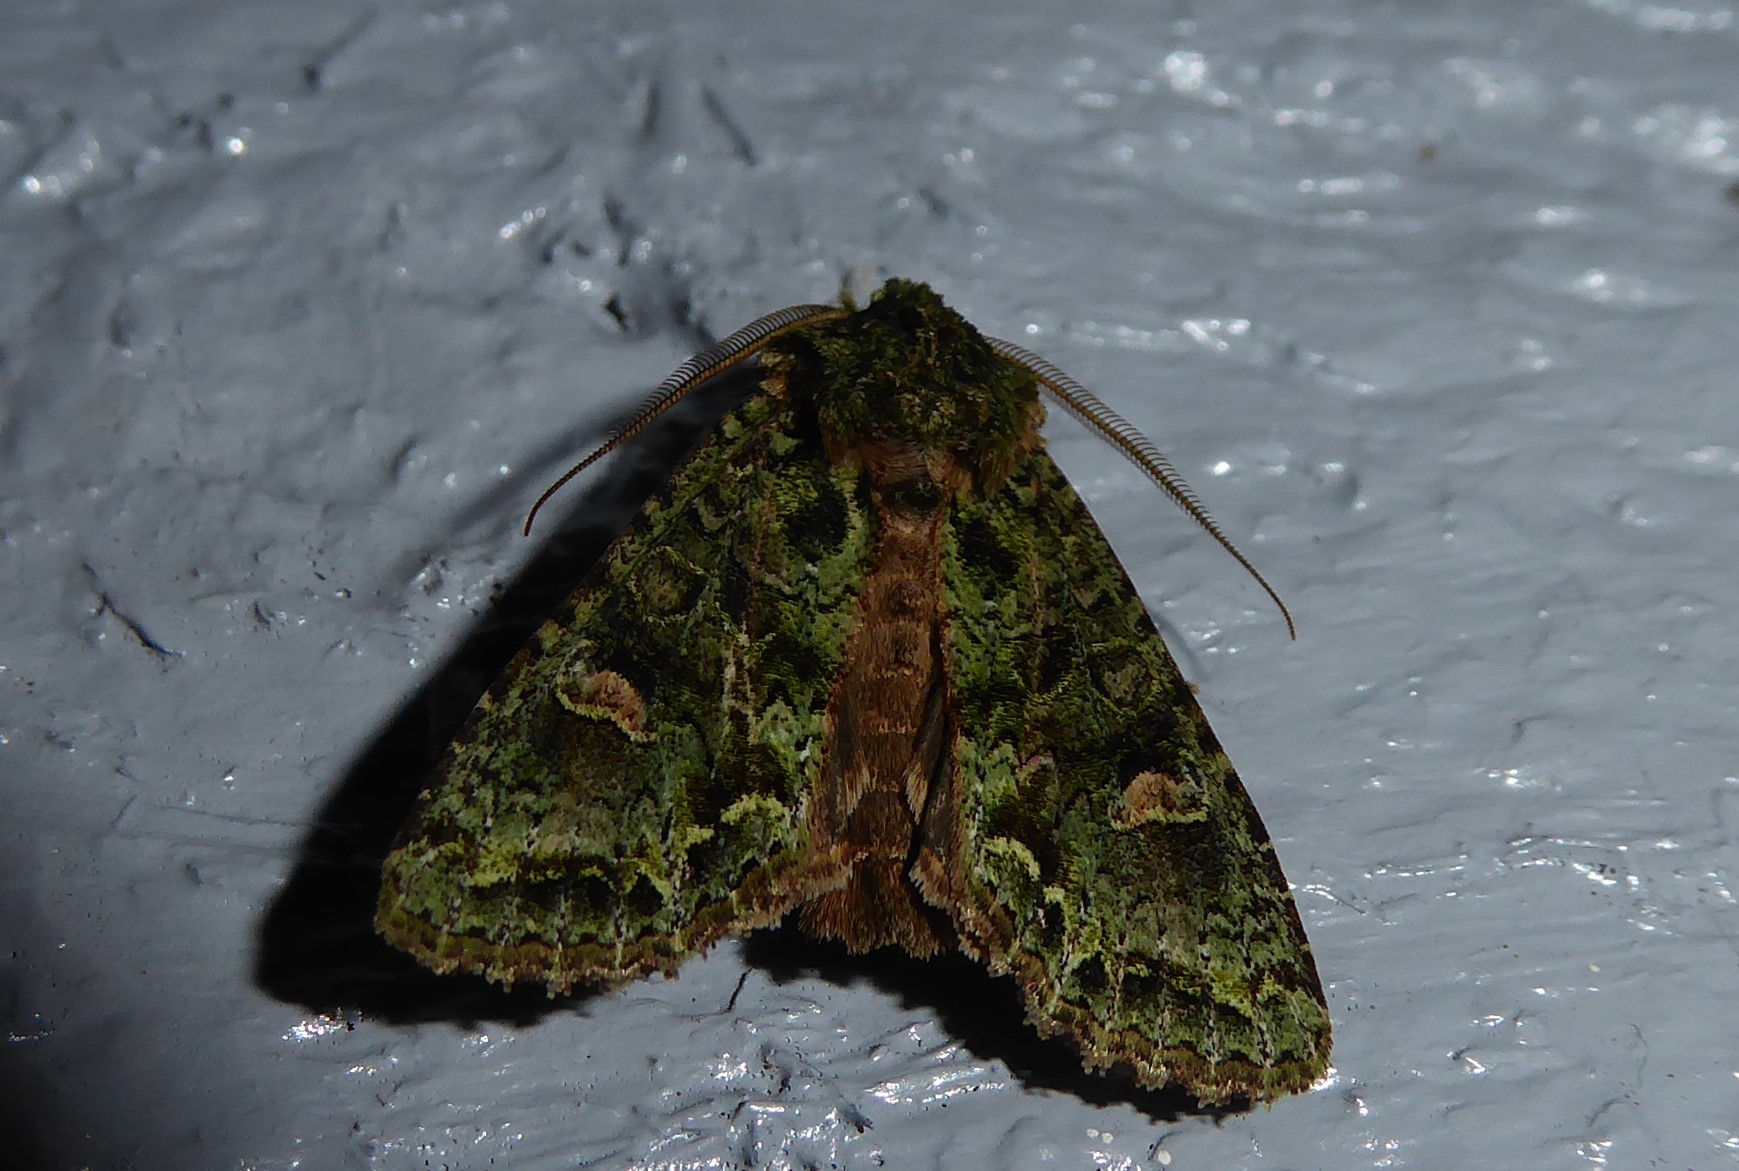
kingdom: Animalia
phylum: Arthropoda
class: Insecta
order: Lepidoptera
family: Noctuidae
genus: Ichneutica
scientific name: Ichneutica
